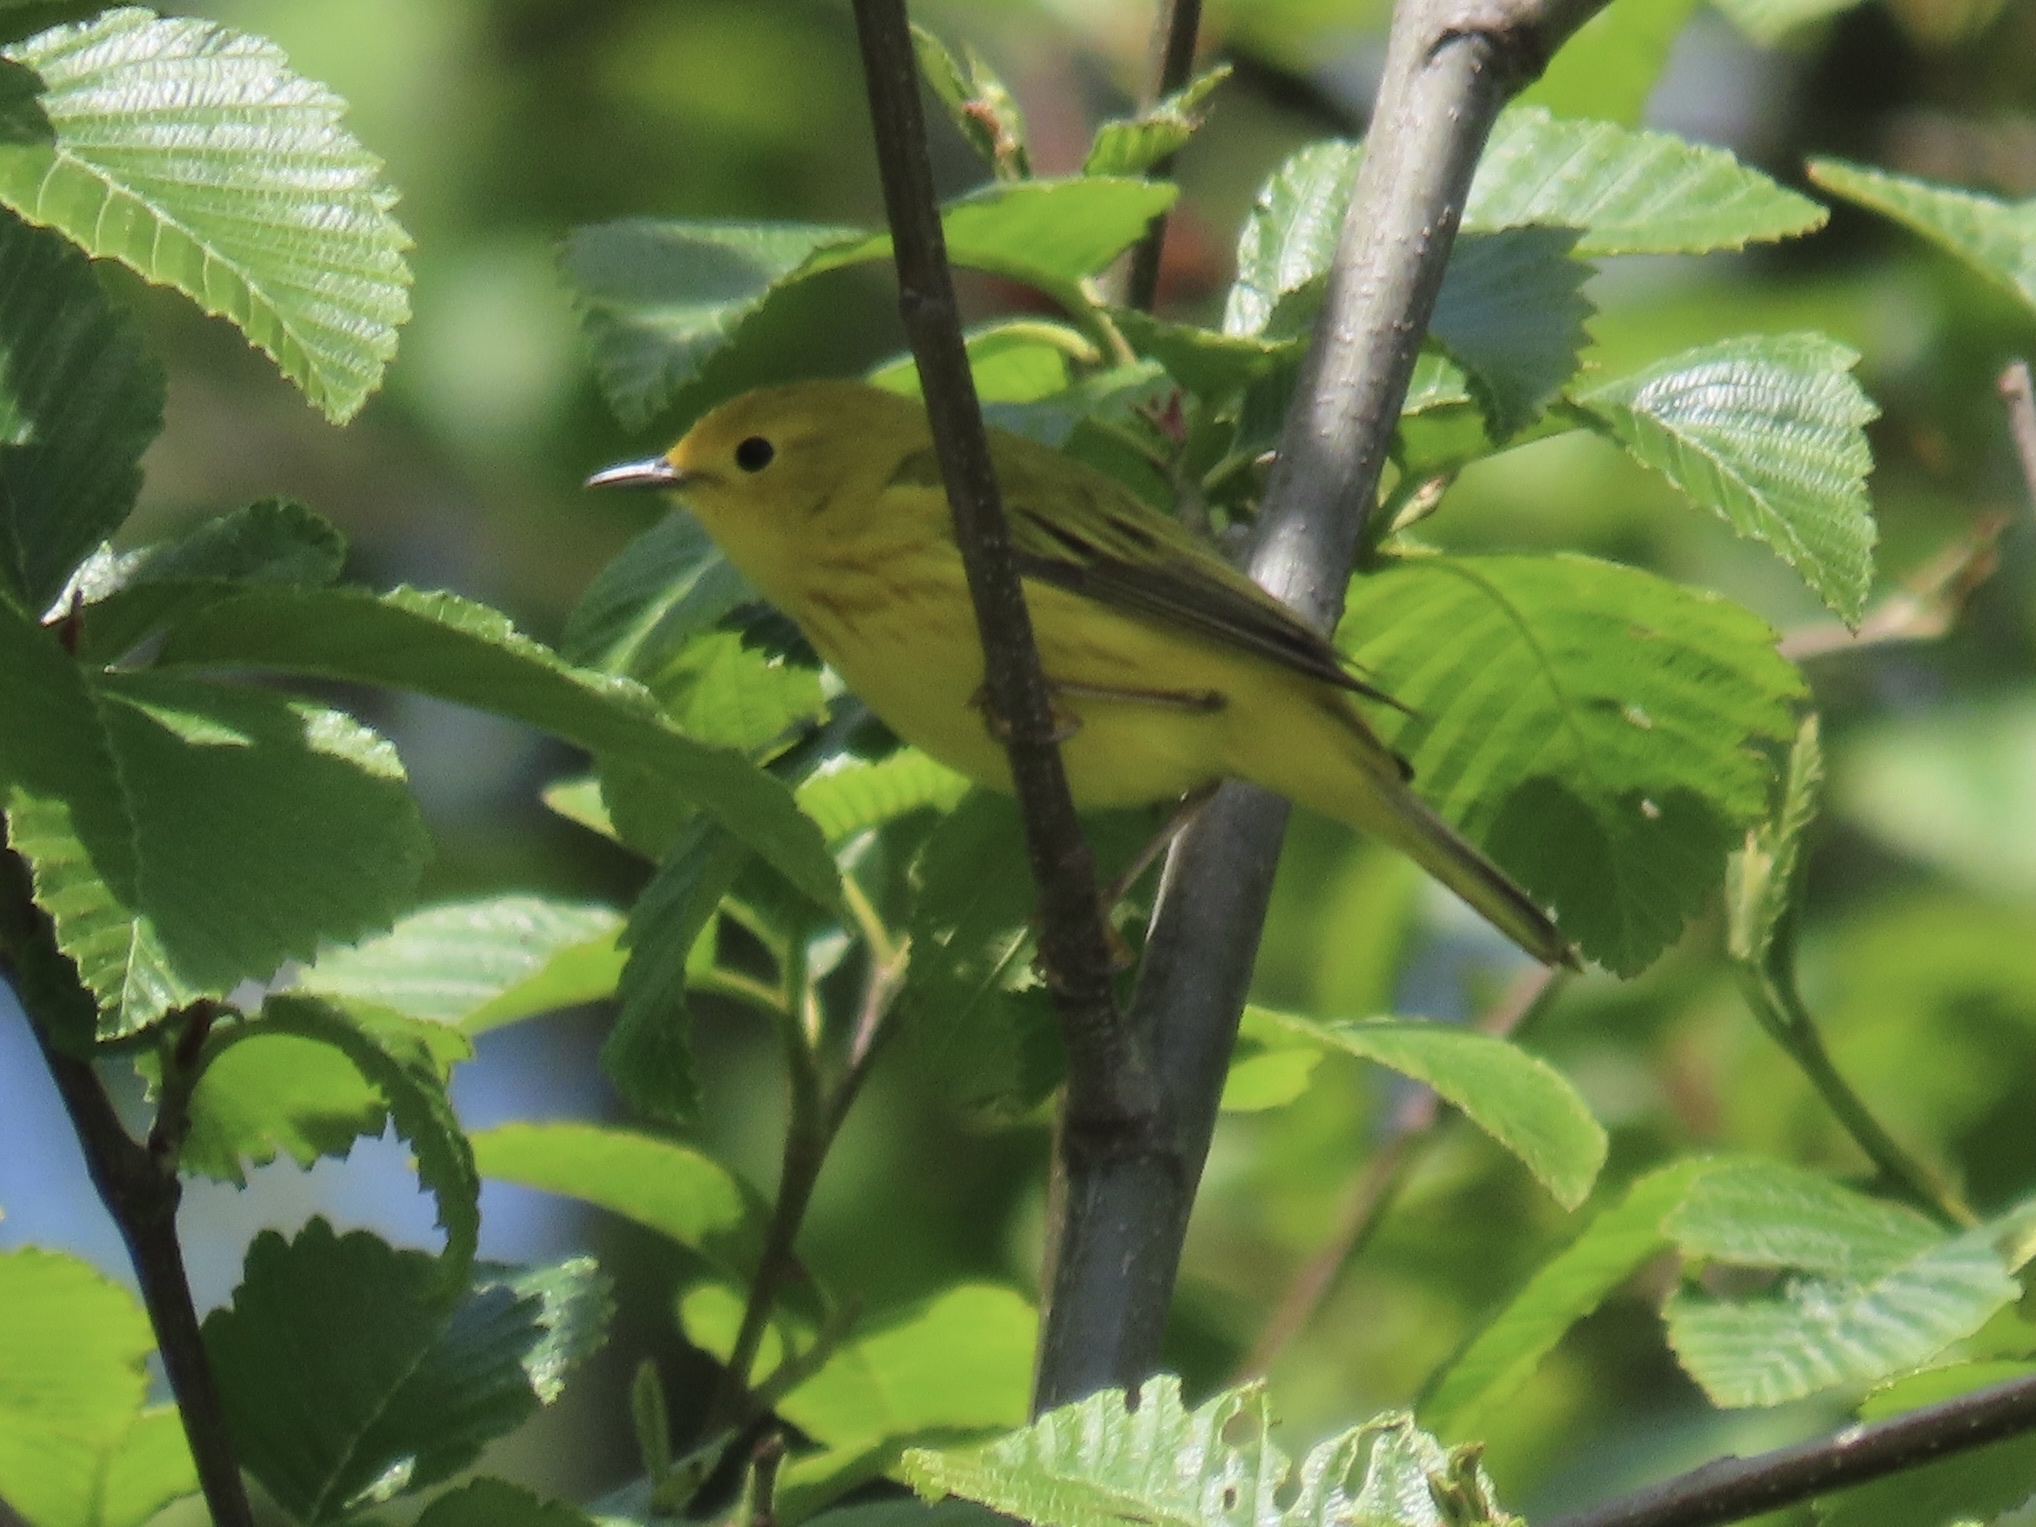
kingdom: Animalia
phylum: Chordata
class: Aves
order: Passeriformes
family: Parulidae
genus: Setophaga
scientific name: Setophaga petechia
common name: Yellow warbler
